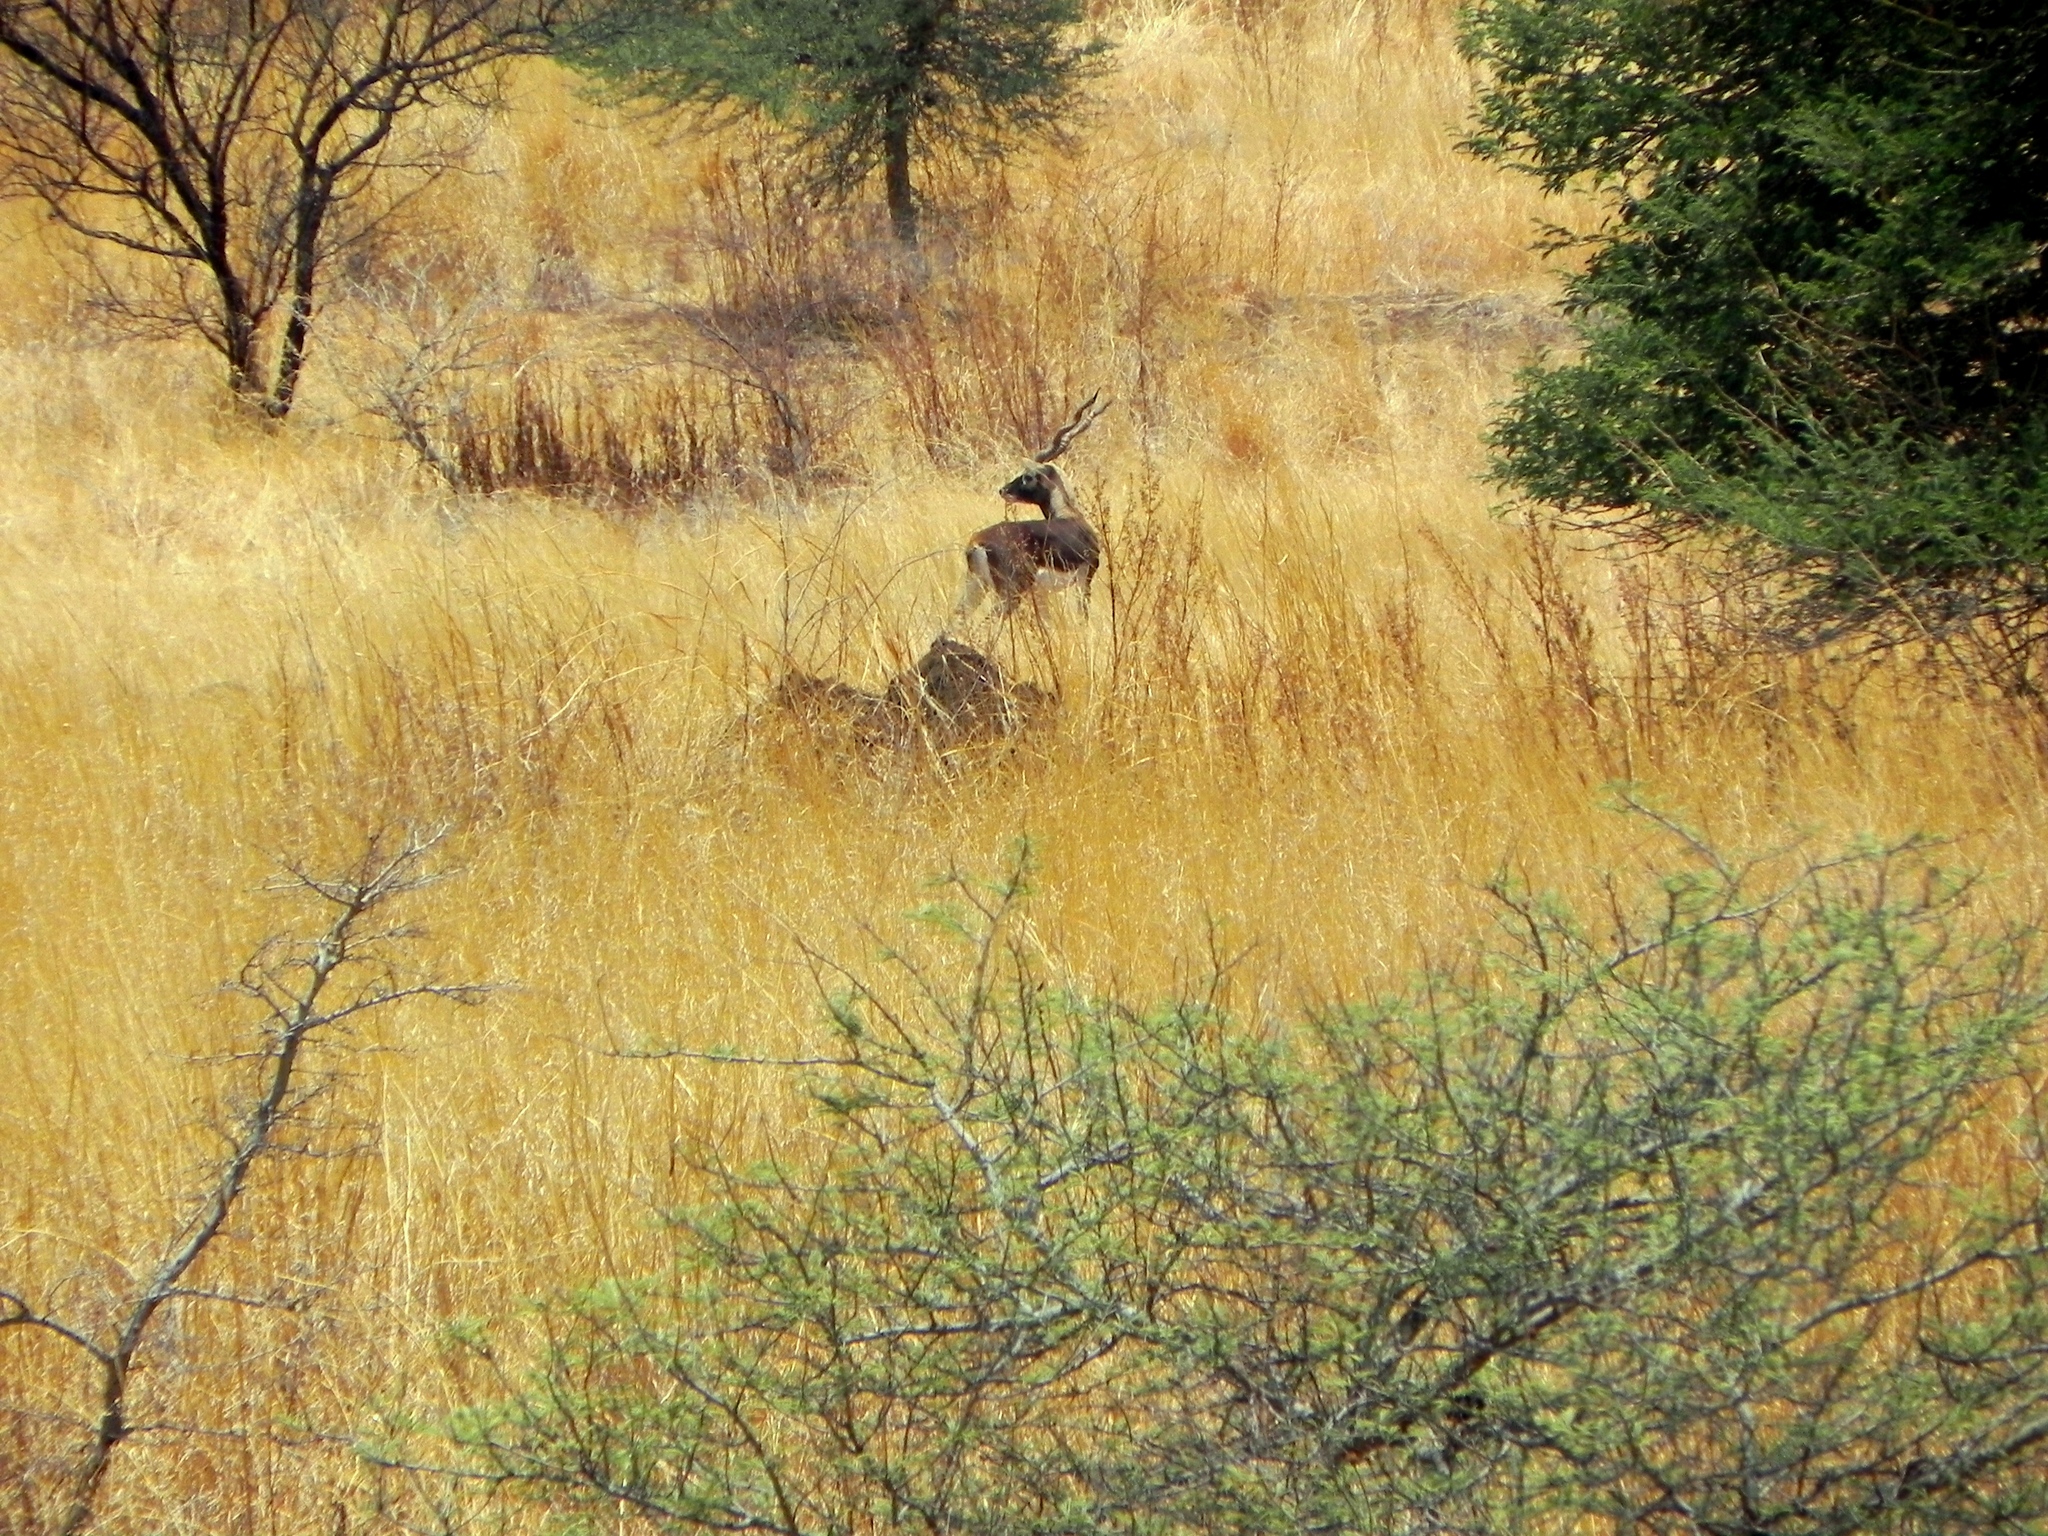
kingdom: Animalia
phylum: Chordata
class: Mammalia
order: Artiodactyla
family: Bovidae
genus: Antilope
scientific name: Antilope cervicapra
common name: Blackbuck
